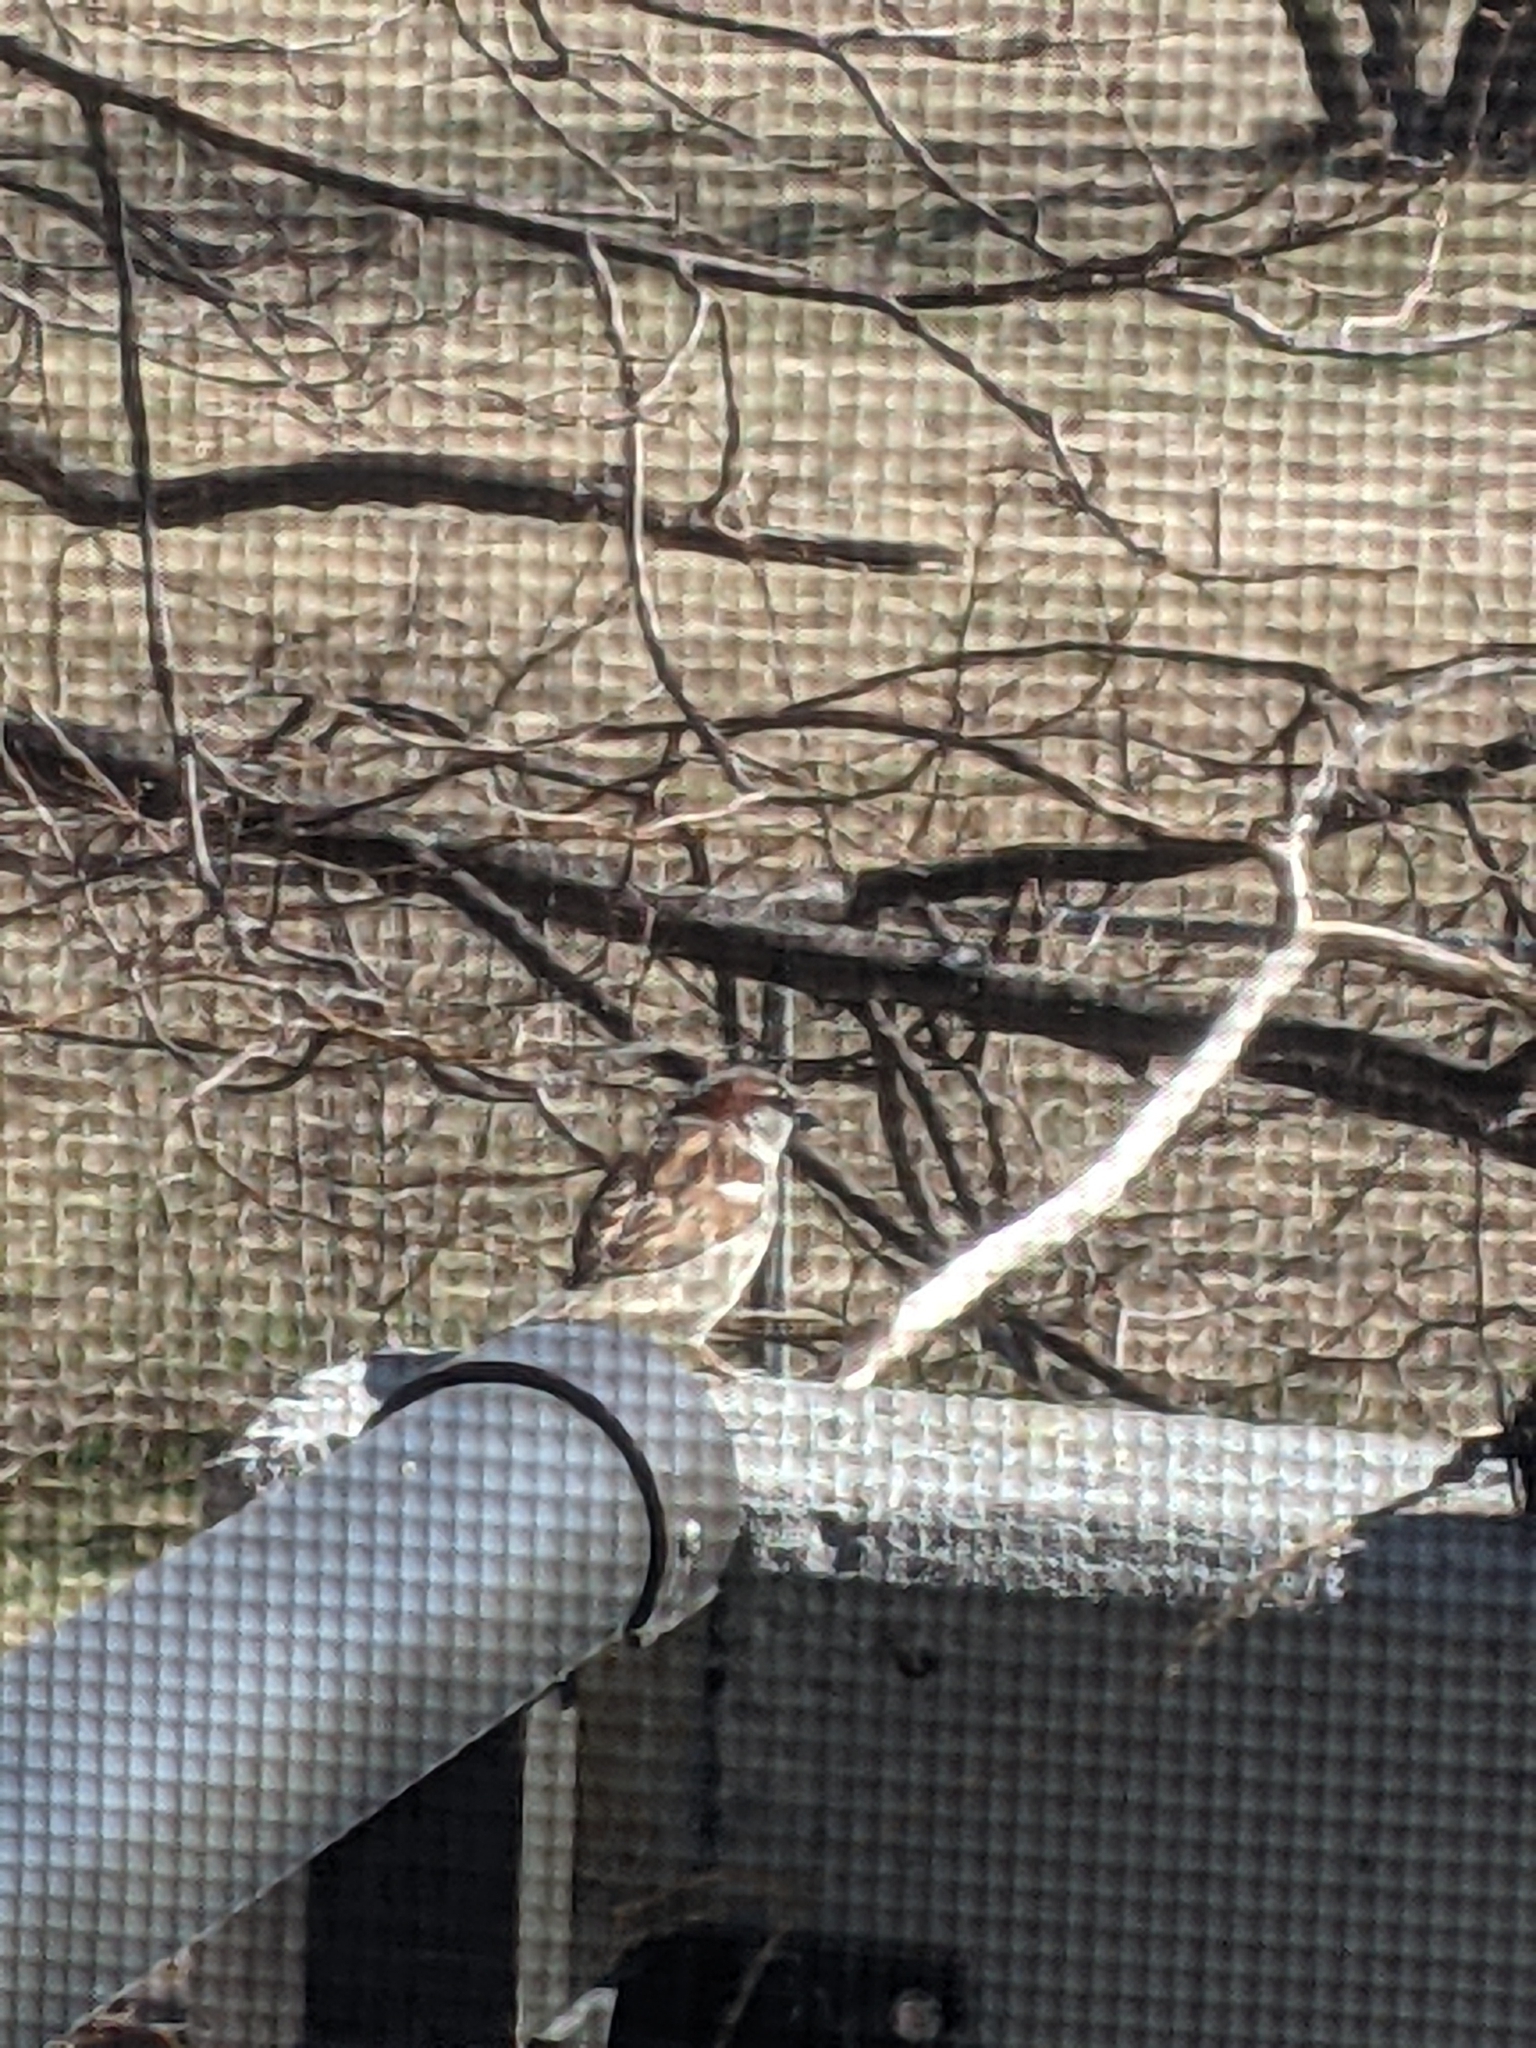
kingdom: Animalia
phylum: Chordata
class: Aves
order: Passeriformes
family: Passeridae
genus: Passer
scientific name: Passer domesticus
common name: House sparrow
